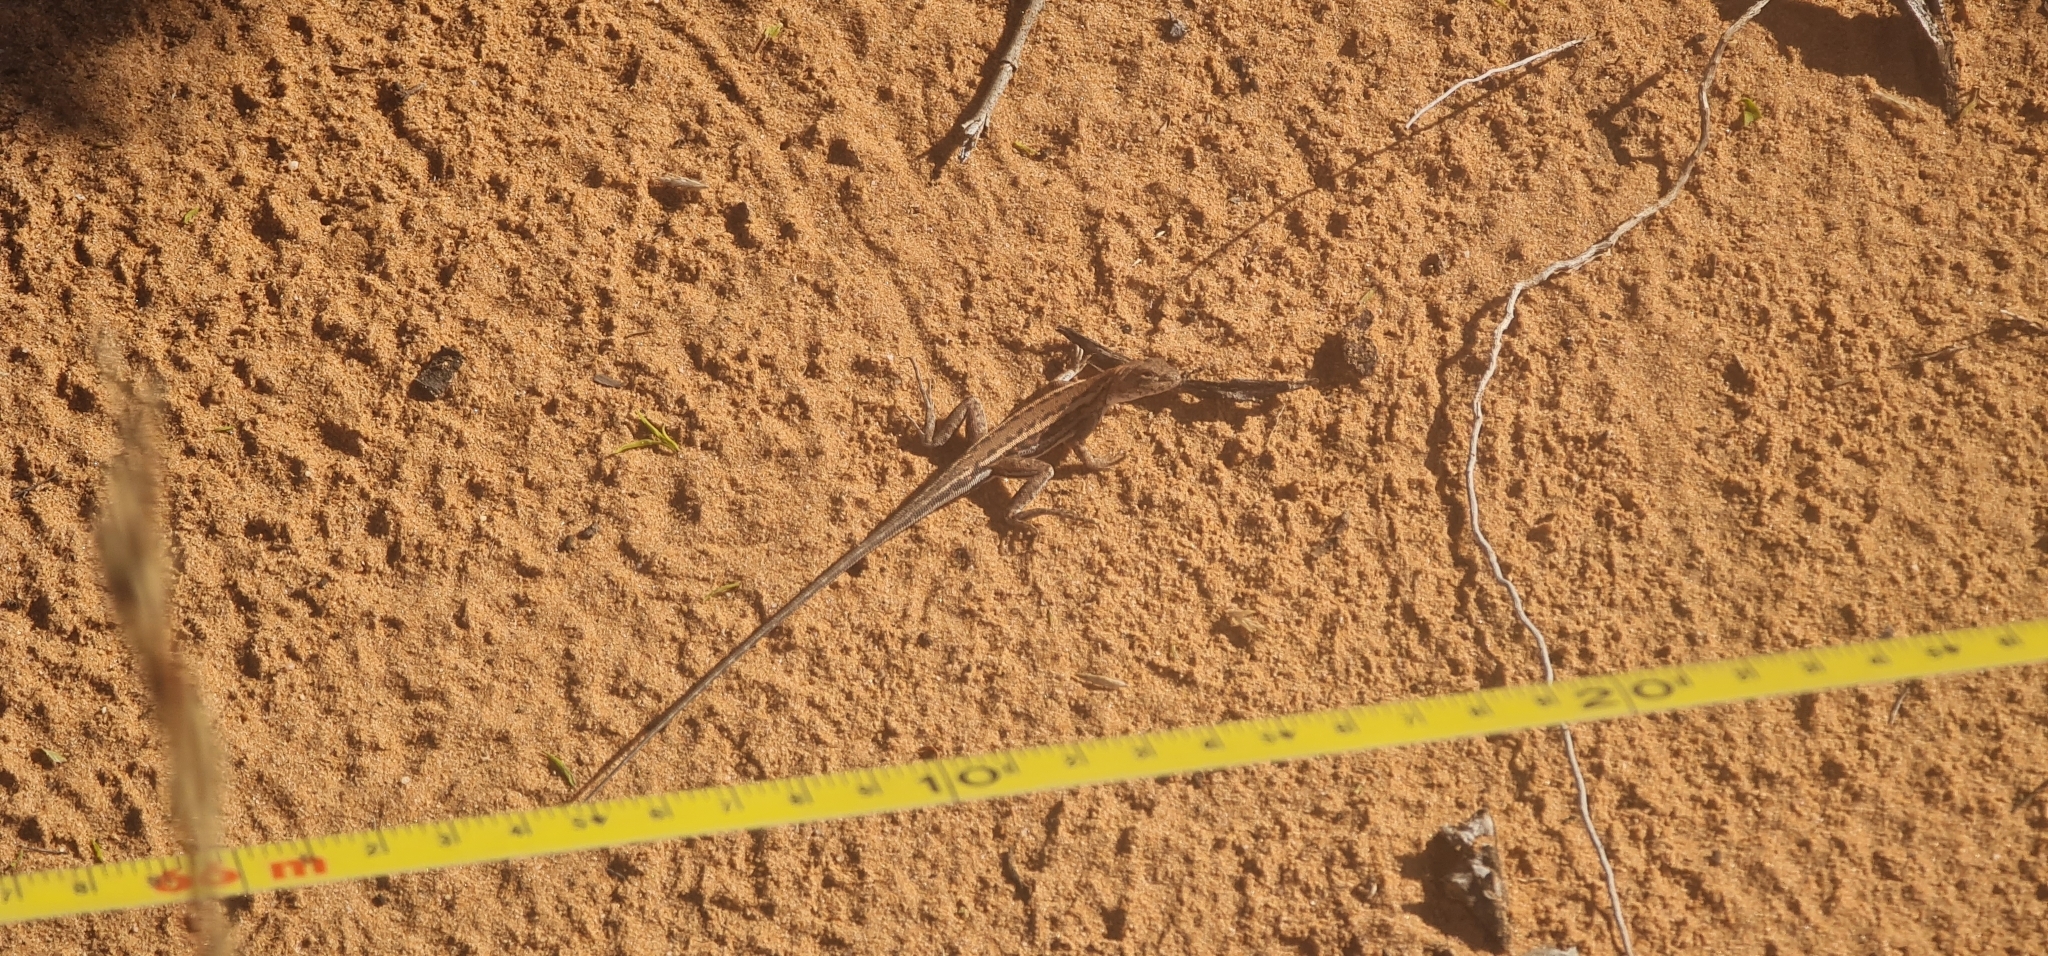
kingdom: Animalia
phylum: Chordata
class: Squamata
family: Agamidae
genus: Ctenophorus
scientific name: Ctenophorus spinodomus
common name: Eastern mallee dragon
